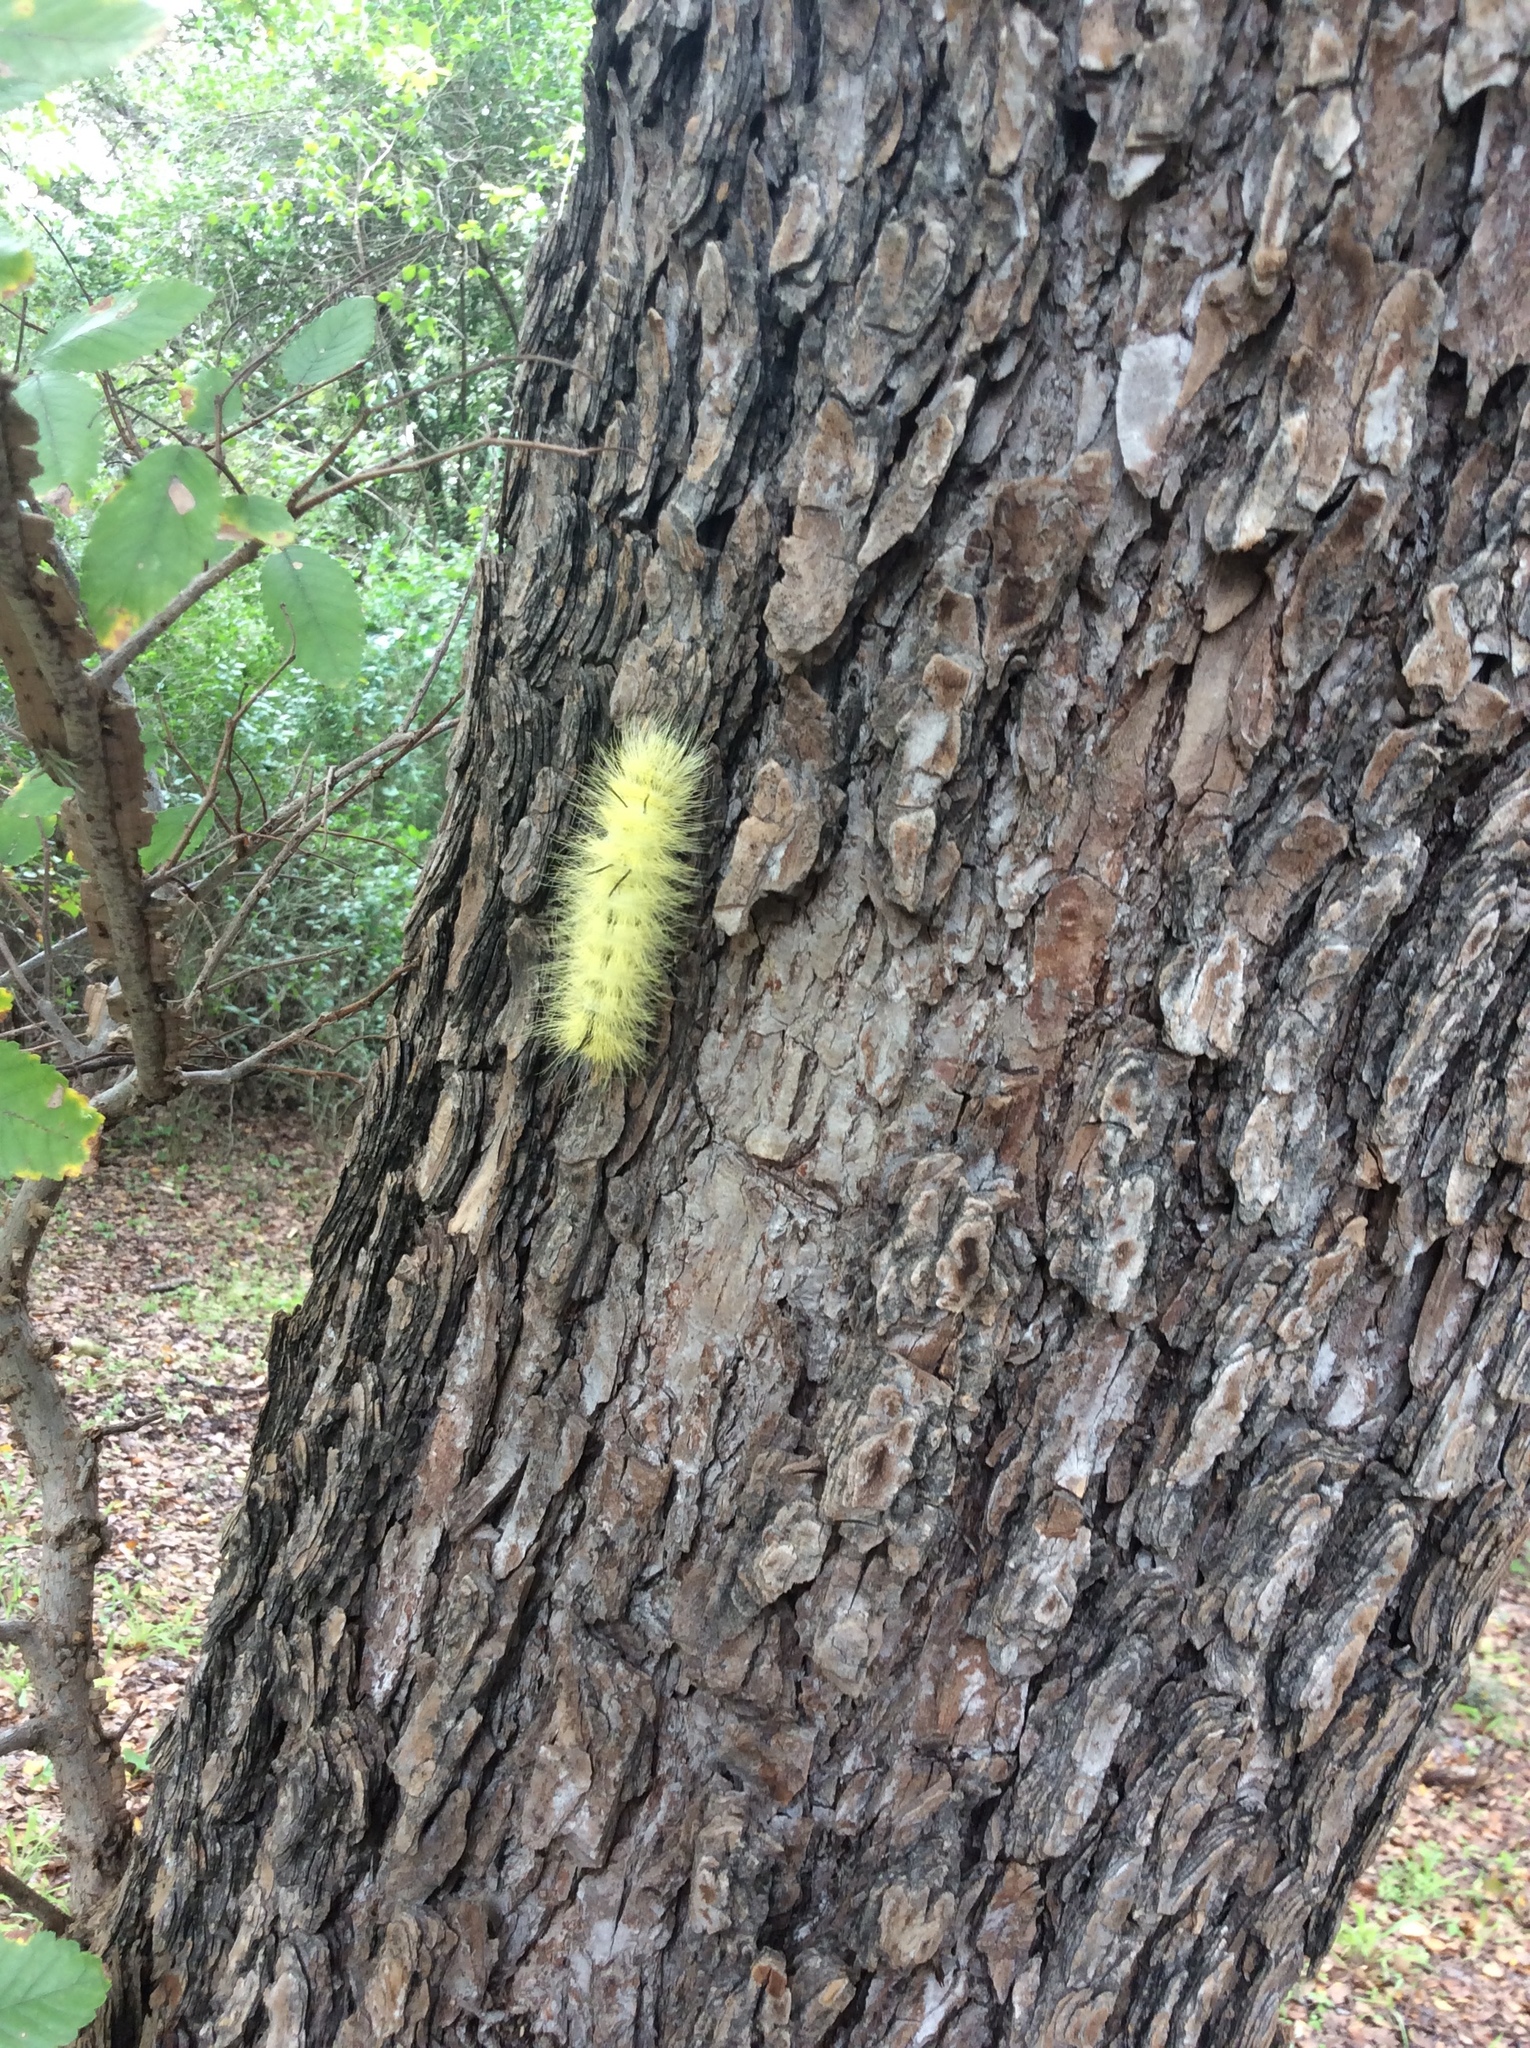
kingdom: Animalia
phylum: Arthropoda
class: Insecta
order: Lepidoptera
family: Noctuidae
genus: Acronicta
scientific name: Acronicta americana
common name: American dagger
